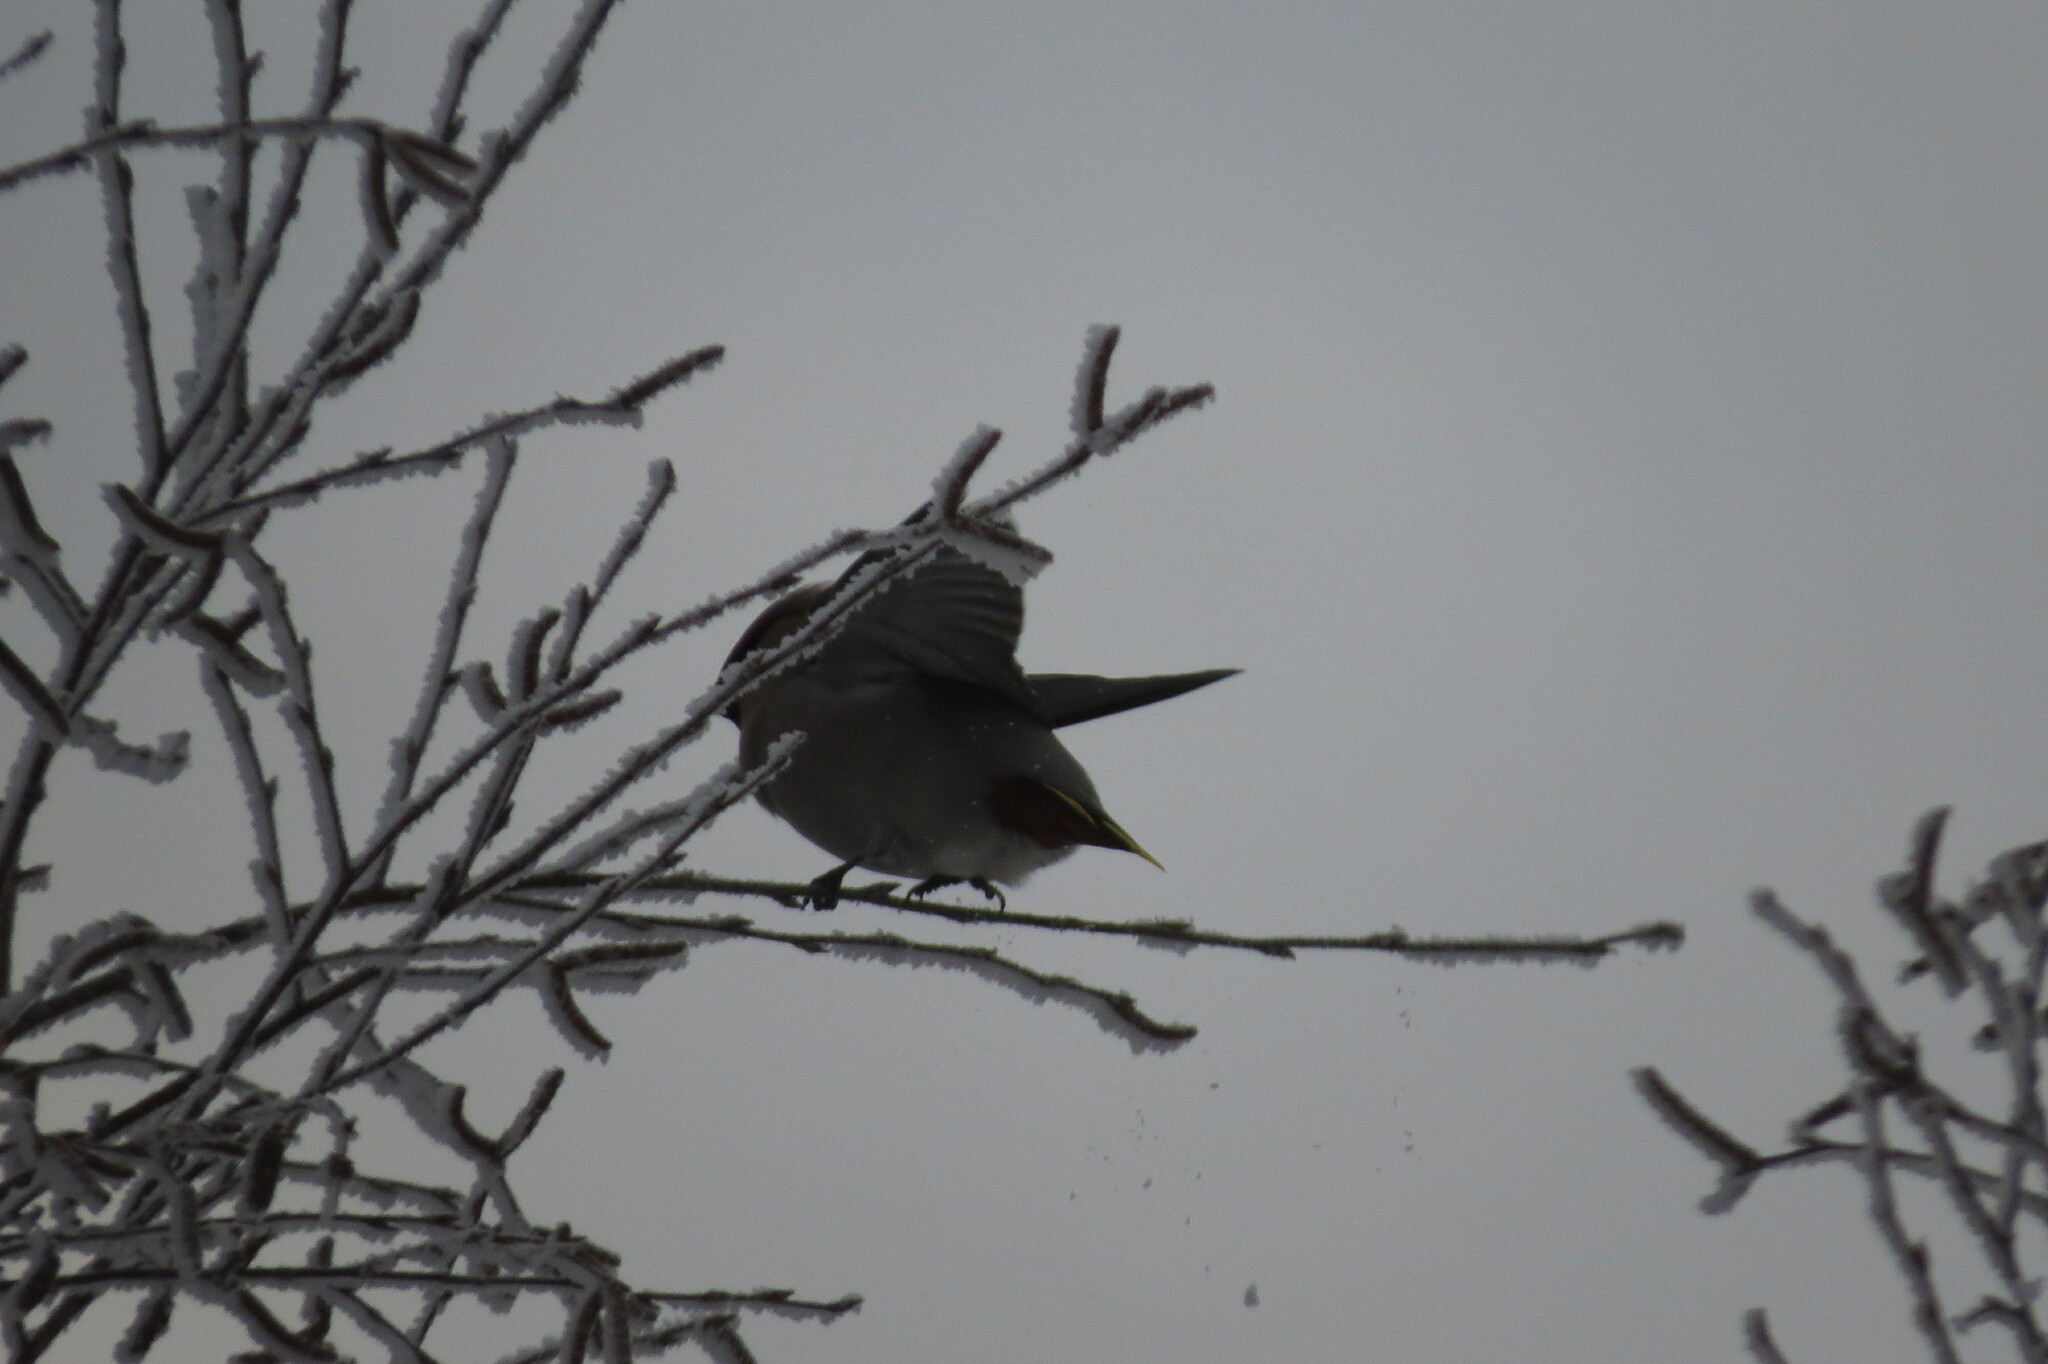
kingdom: Animalia
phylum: Chordata
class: Aves
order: Passeriformes
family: Bombycillidae
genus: Bombycilla
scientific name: Bombycilla garrulus
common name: Bohemian waxwing
